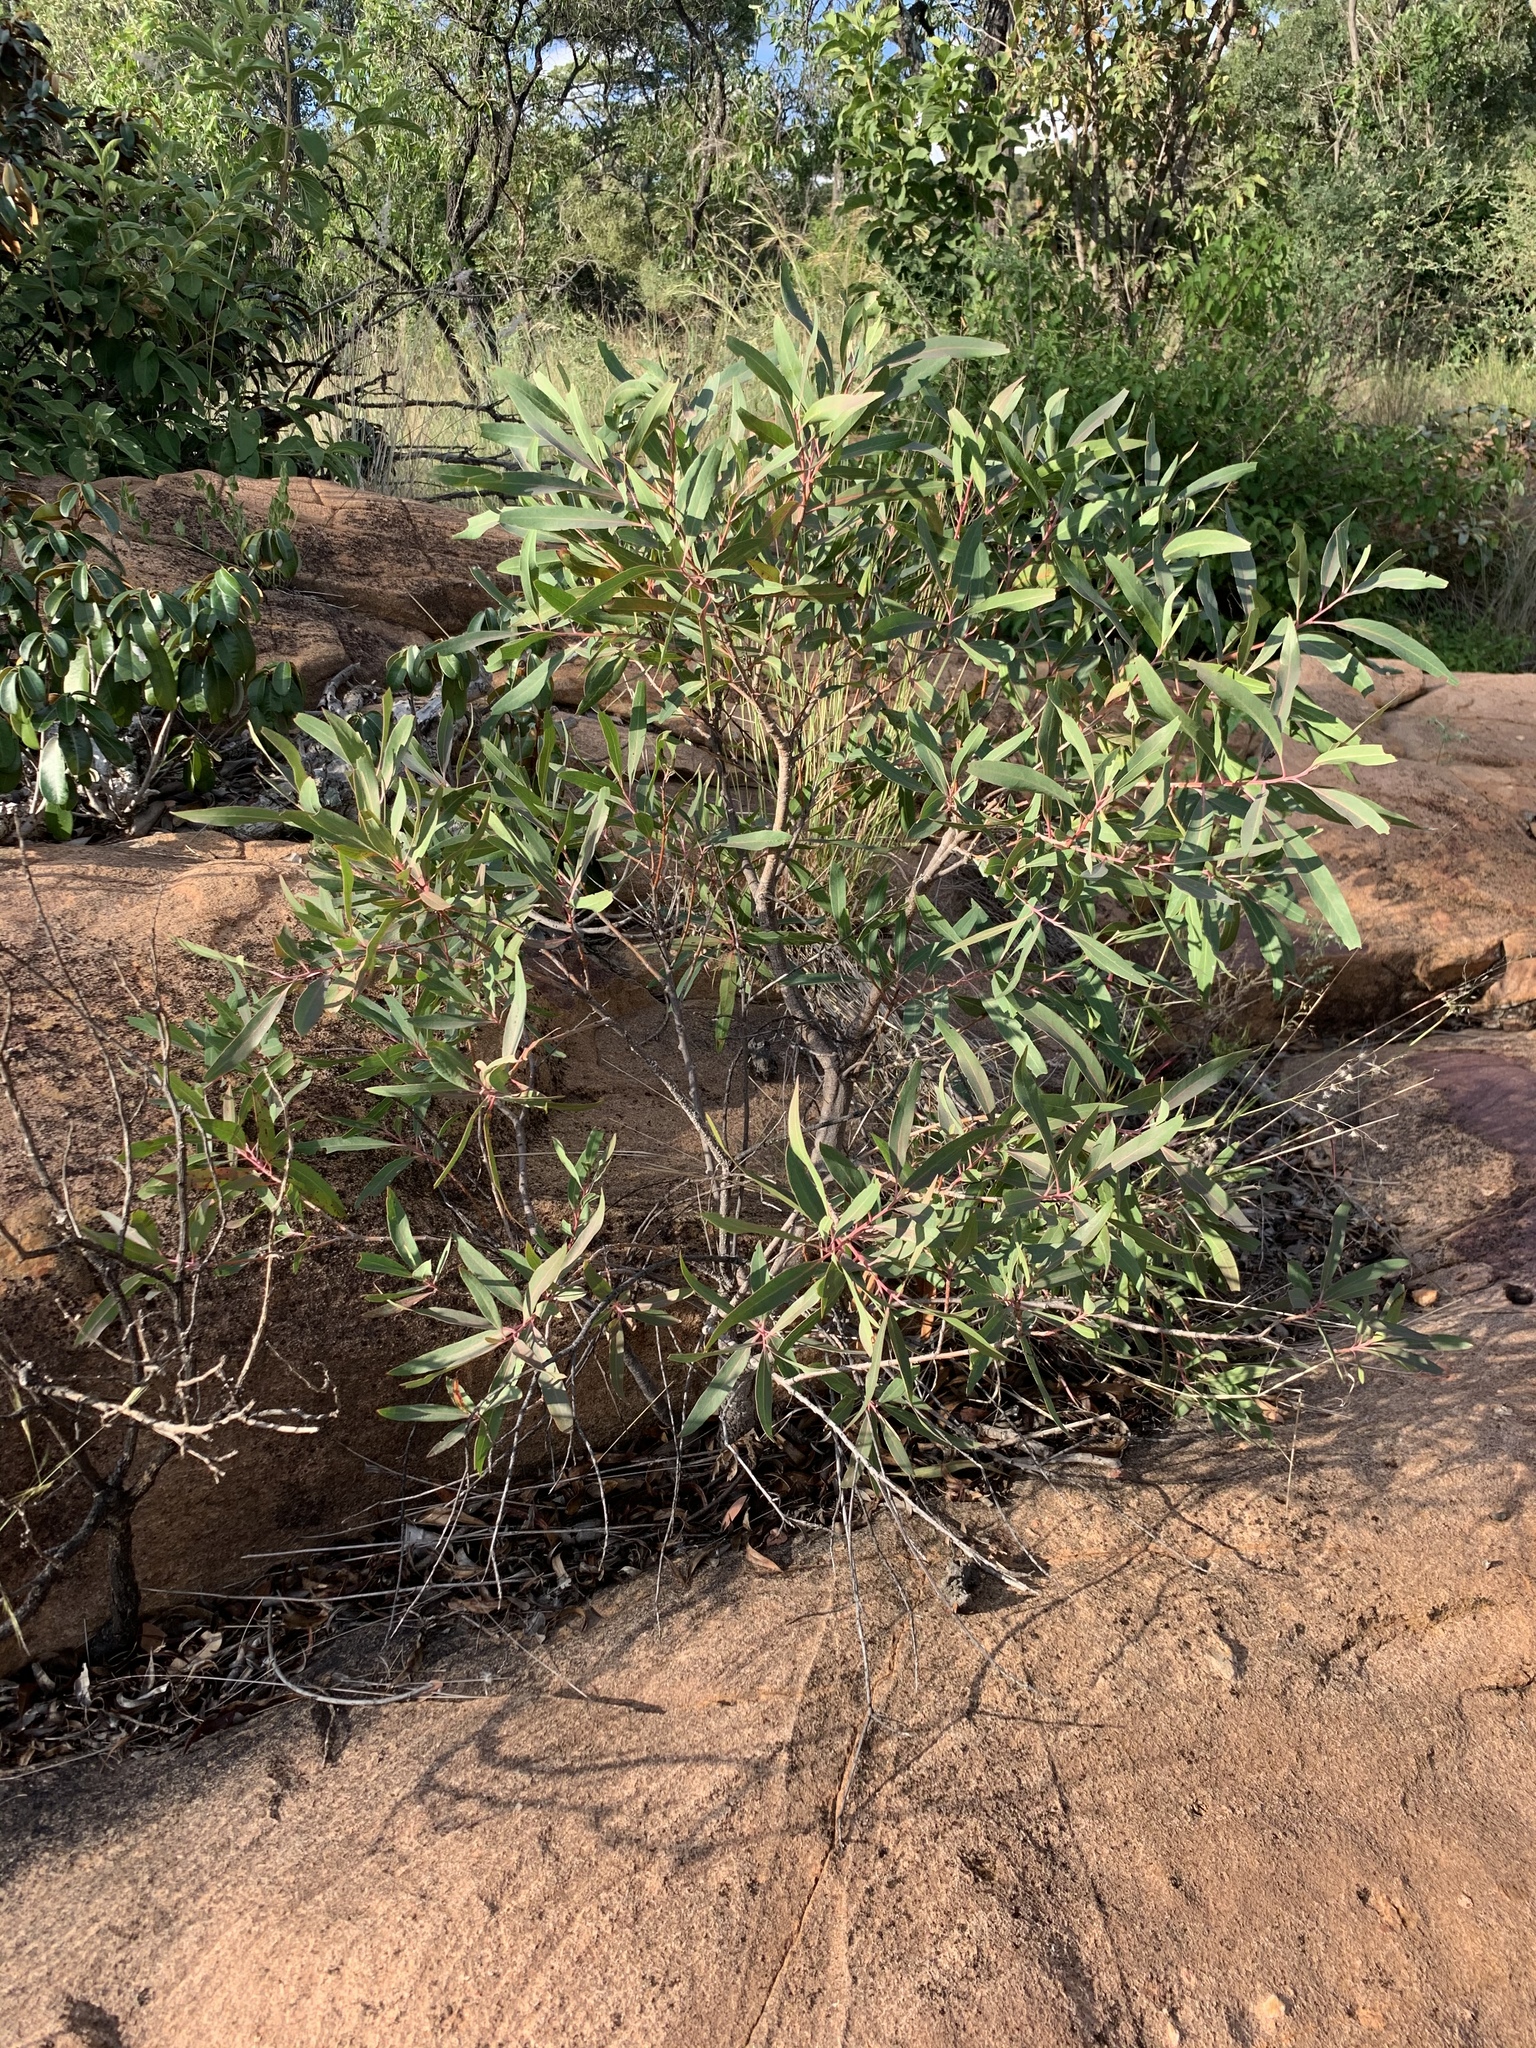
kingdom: Plantae
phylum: Tracheophyta
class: Magnoliopsida
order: Proteales
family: Proteaceae
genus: Faurea
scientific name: Faurea saligna
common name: African bean
